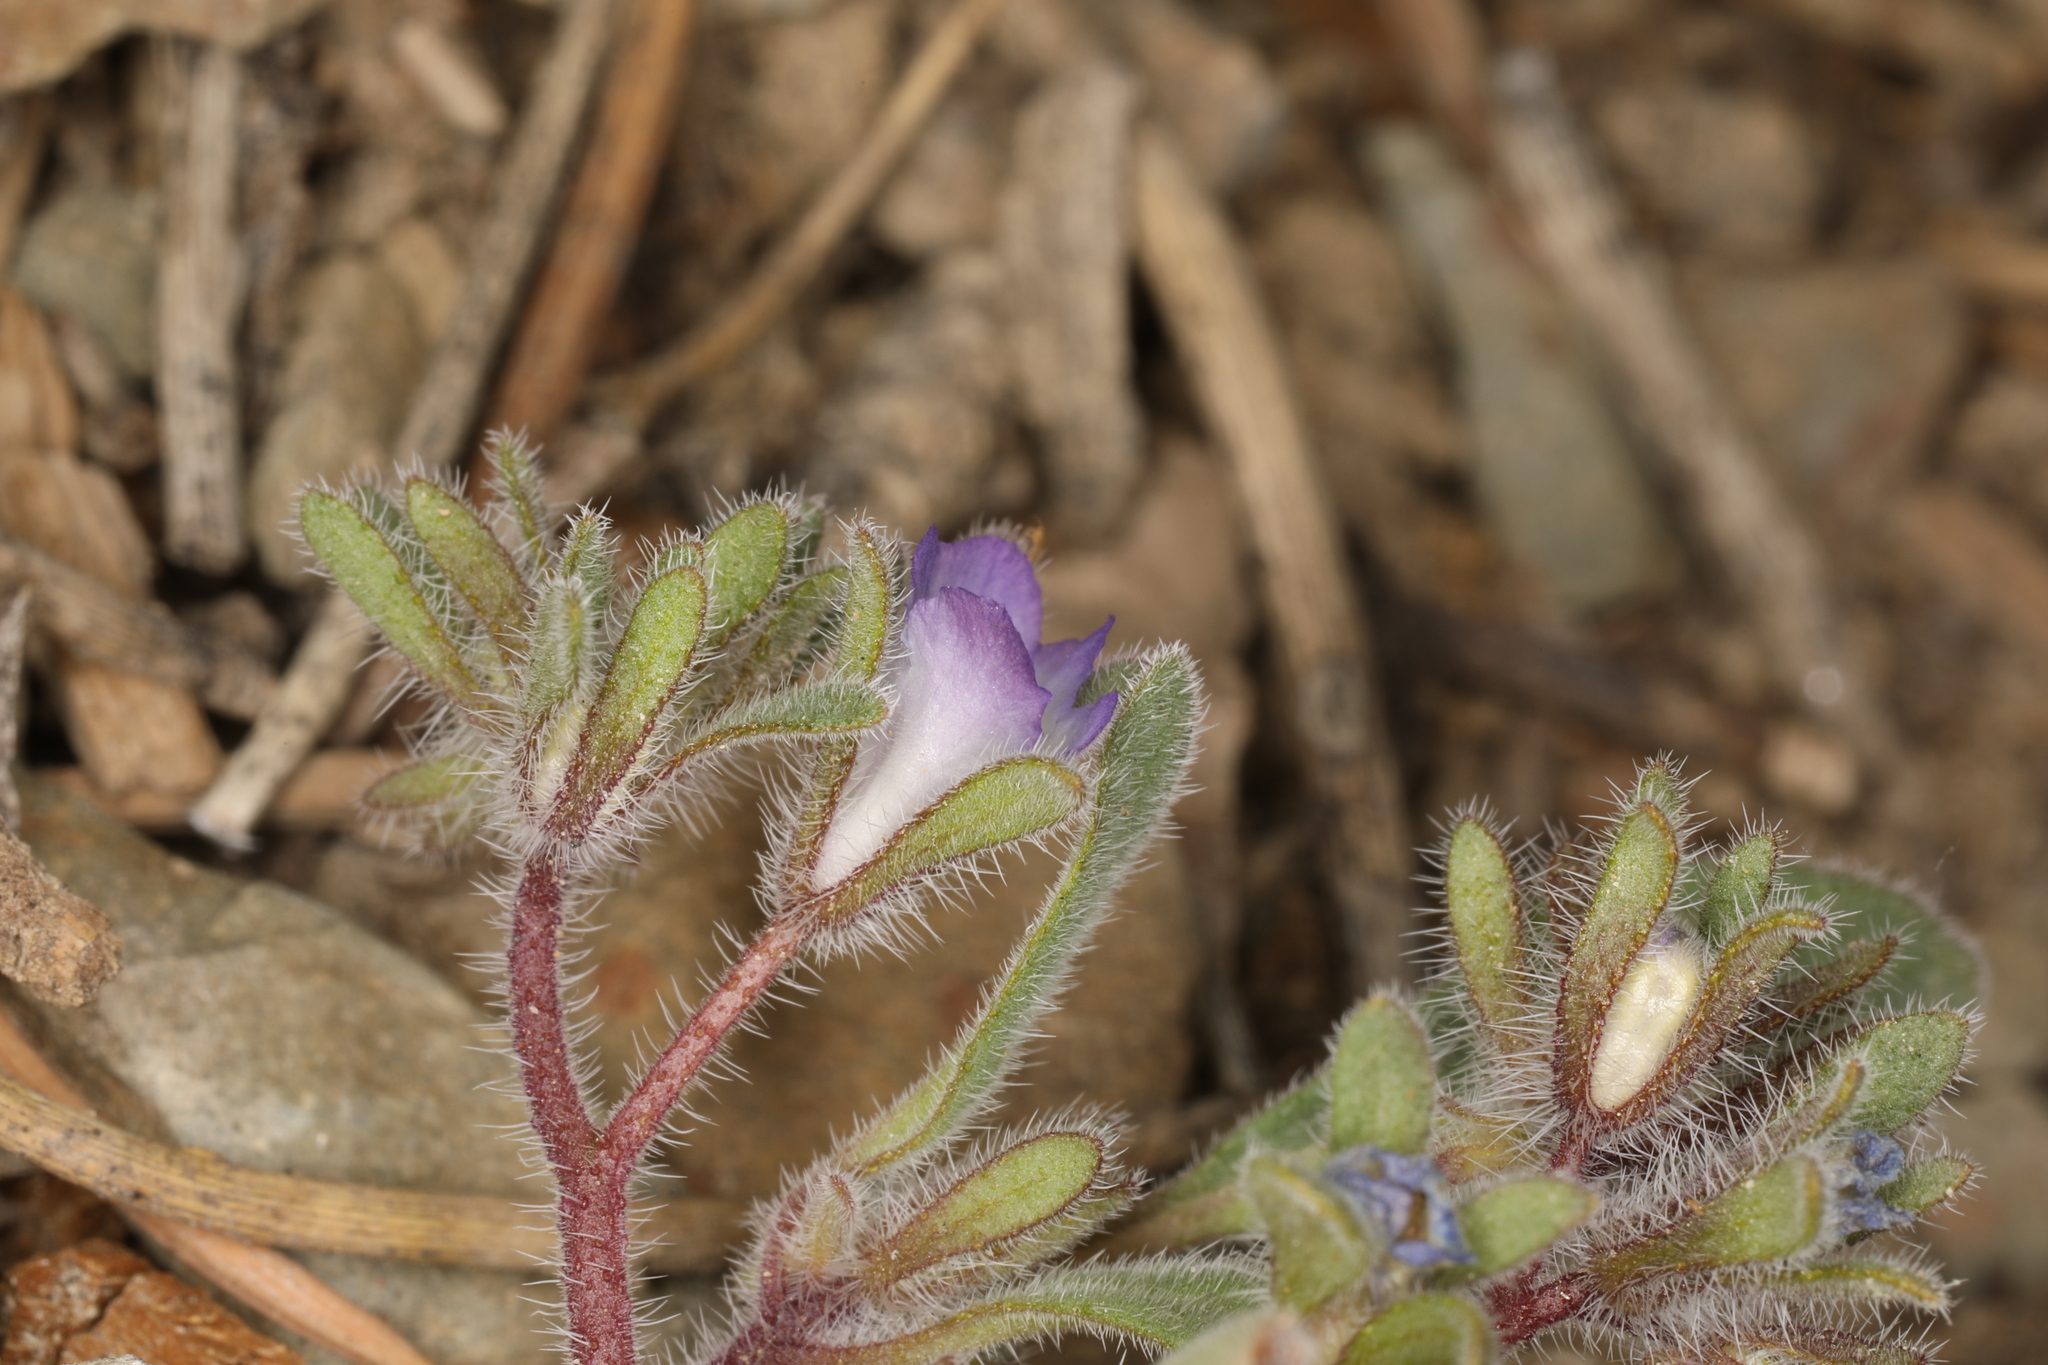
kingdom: Plantae
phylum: Tracheophyta
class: Magnoliopsida
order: Boraginales
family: Hydrophyllaceae
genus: Phacelia
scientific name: Phacelia curvipes
